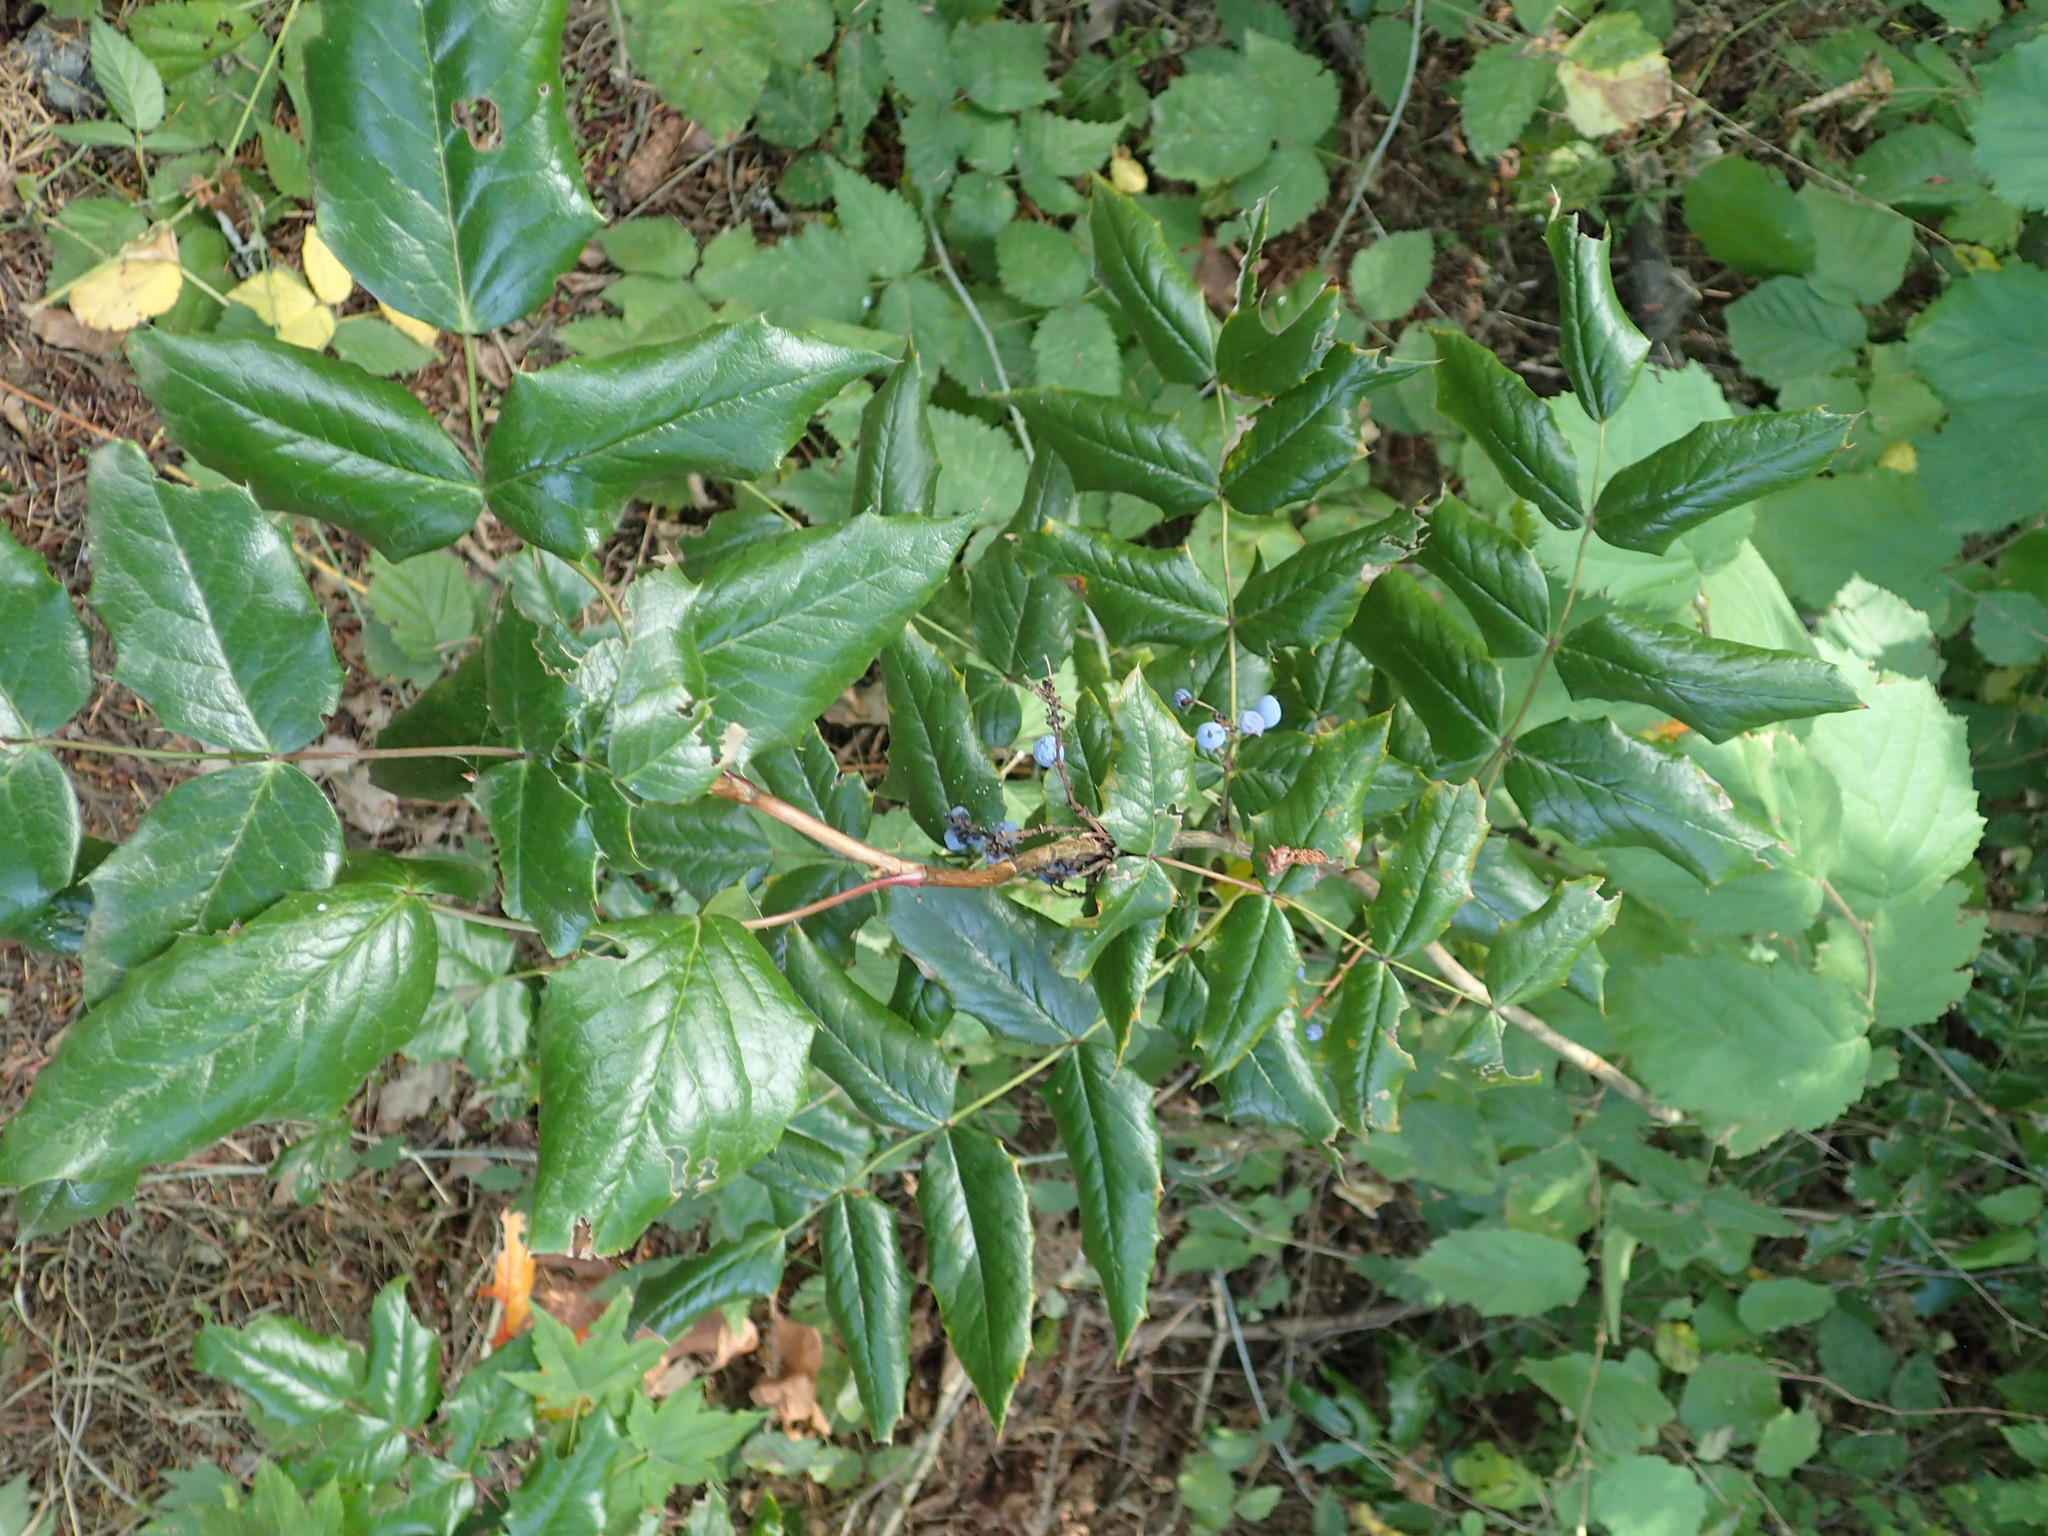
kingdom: Plantae
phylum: Tracheophyta
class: Magnoliopsida
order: Ranunculales
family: Berberidaceae
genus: Mahonia
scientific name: Mahonia aquifolium
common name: Oregon-grape
